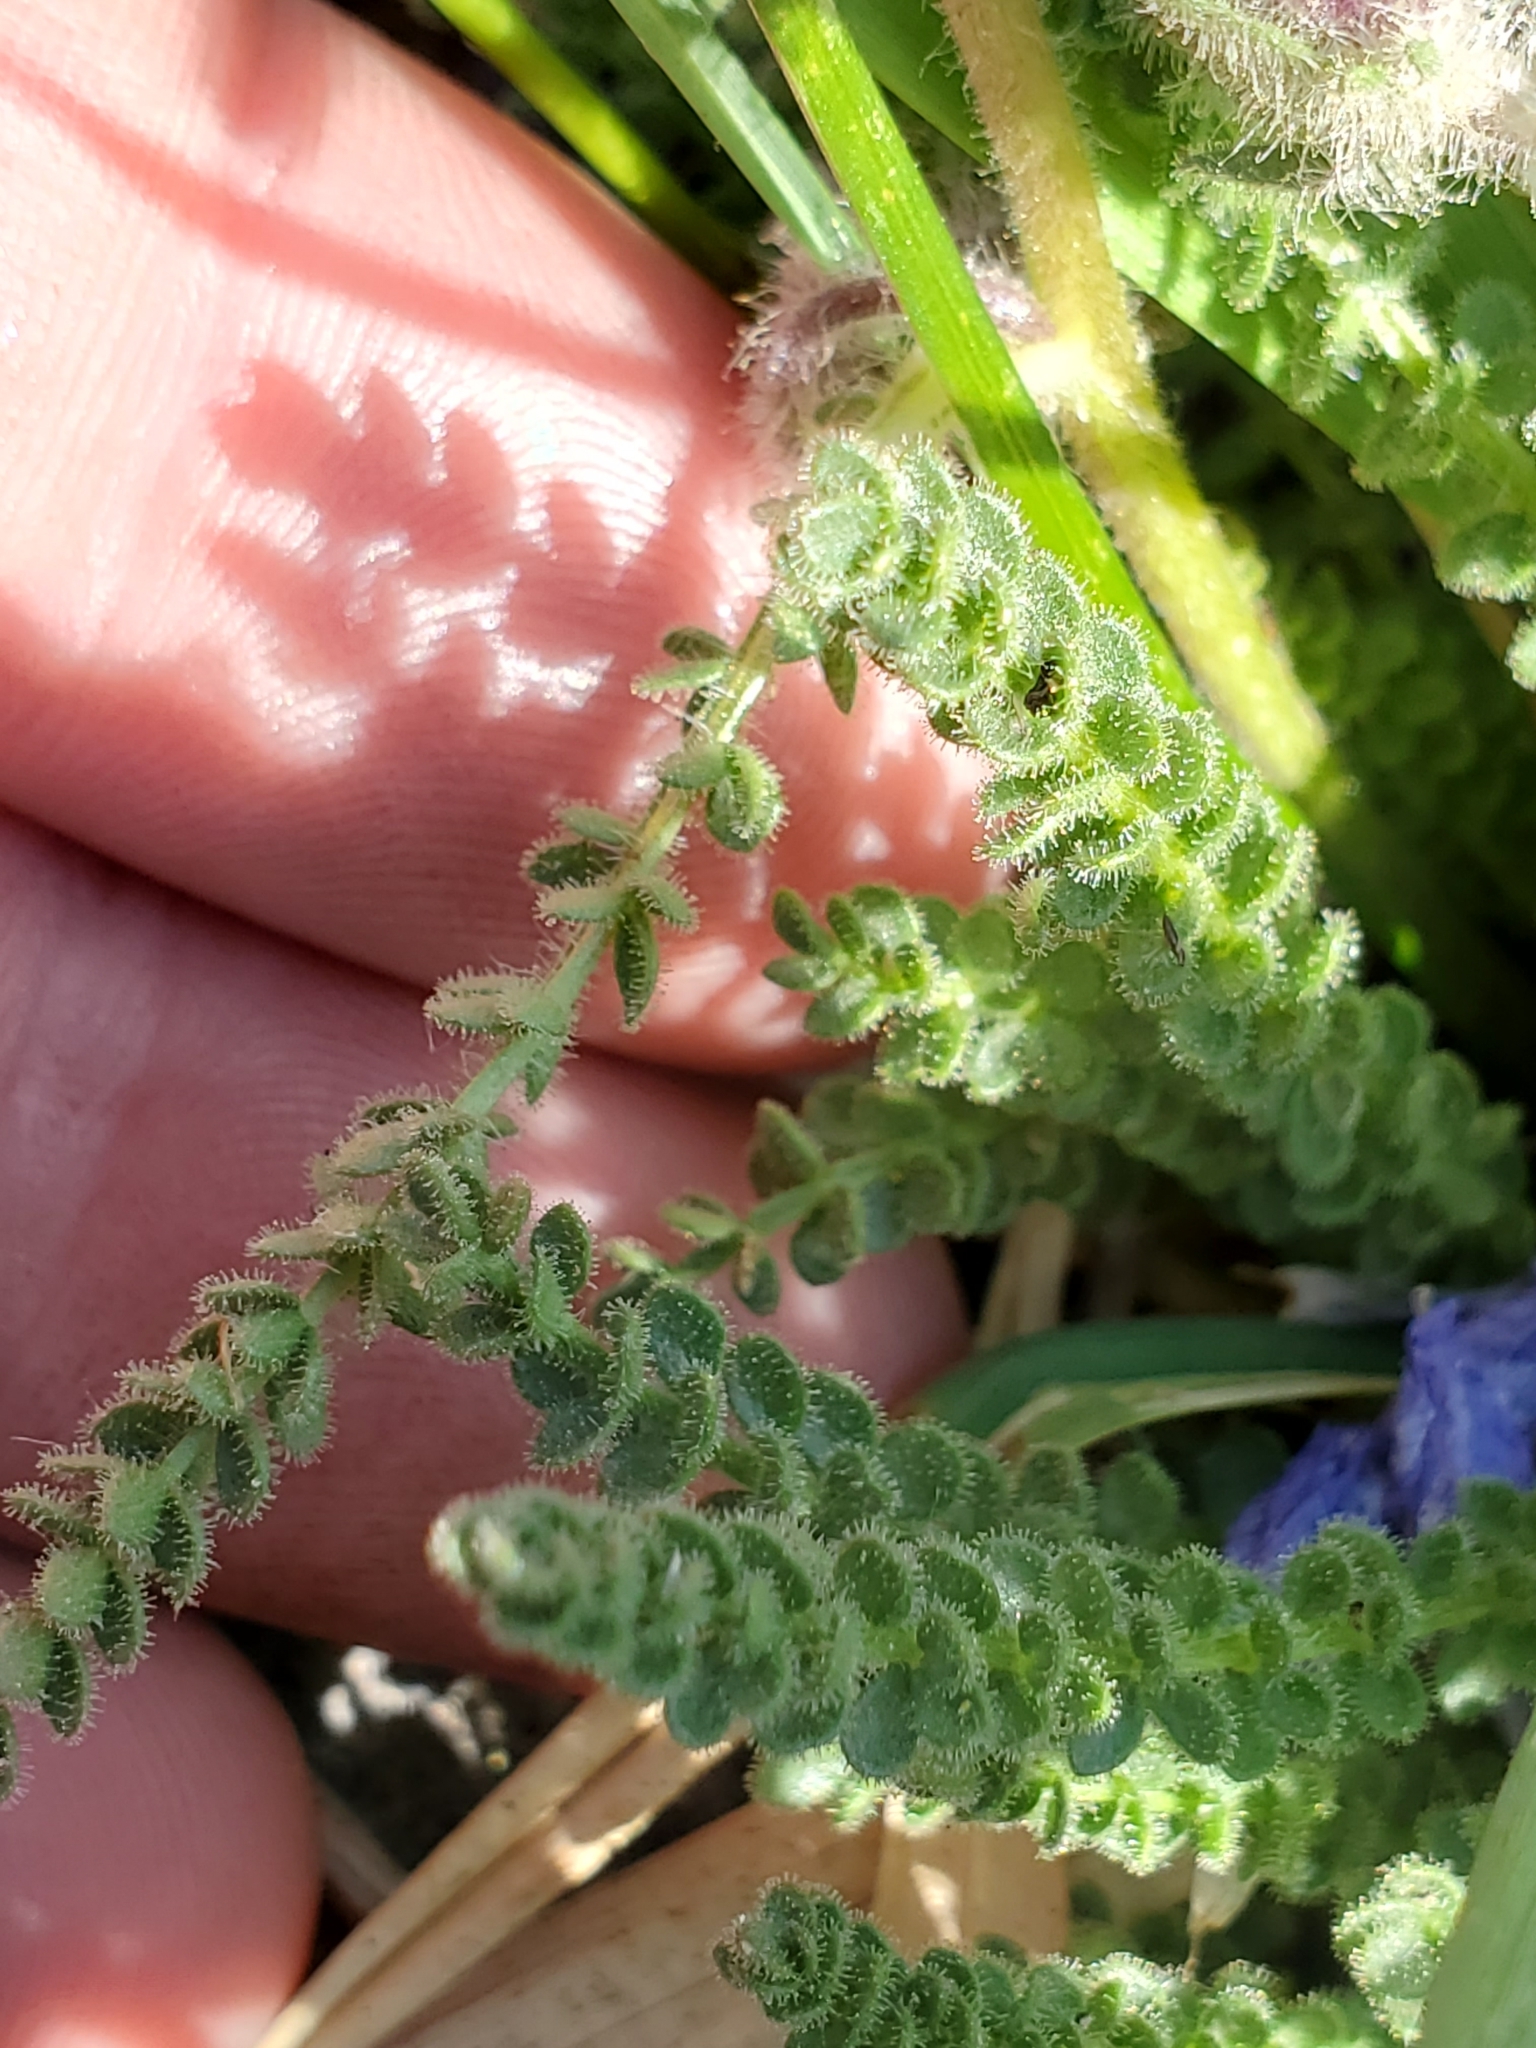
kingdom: Plantae
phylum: Tracheophyta
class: Magnoliopsida
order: Ericales
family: Polemoniaceae
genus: Polemonium
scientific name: Polemonium viscosum
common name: Skunk jacob's-ladder
